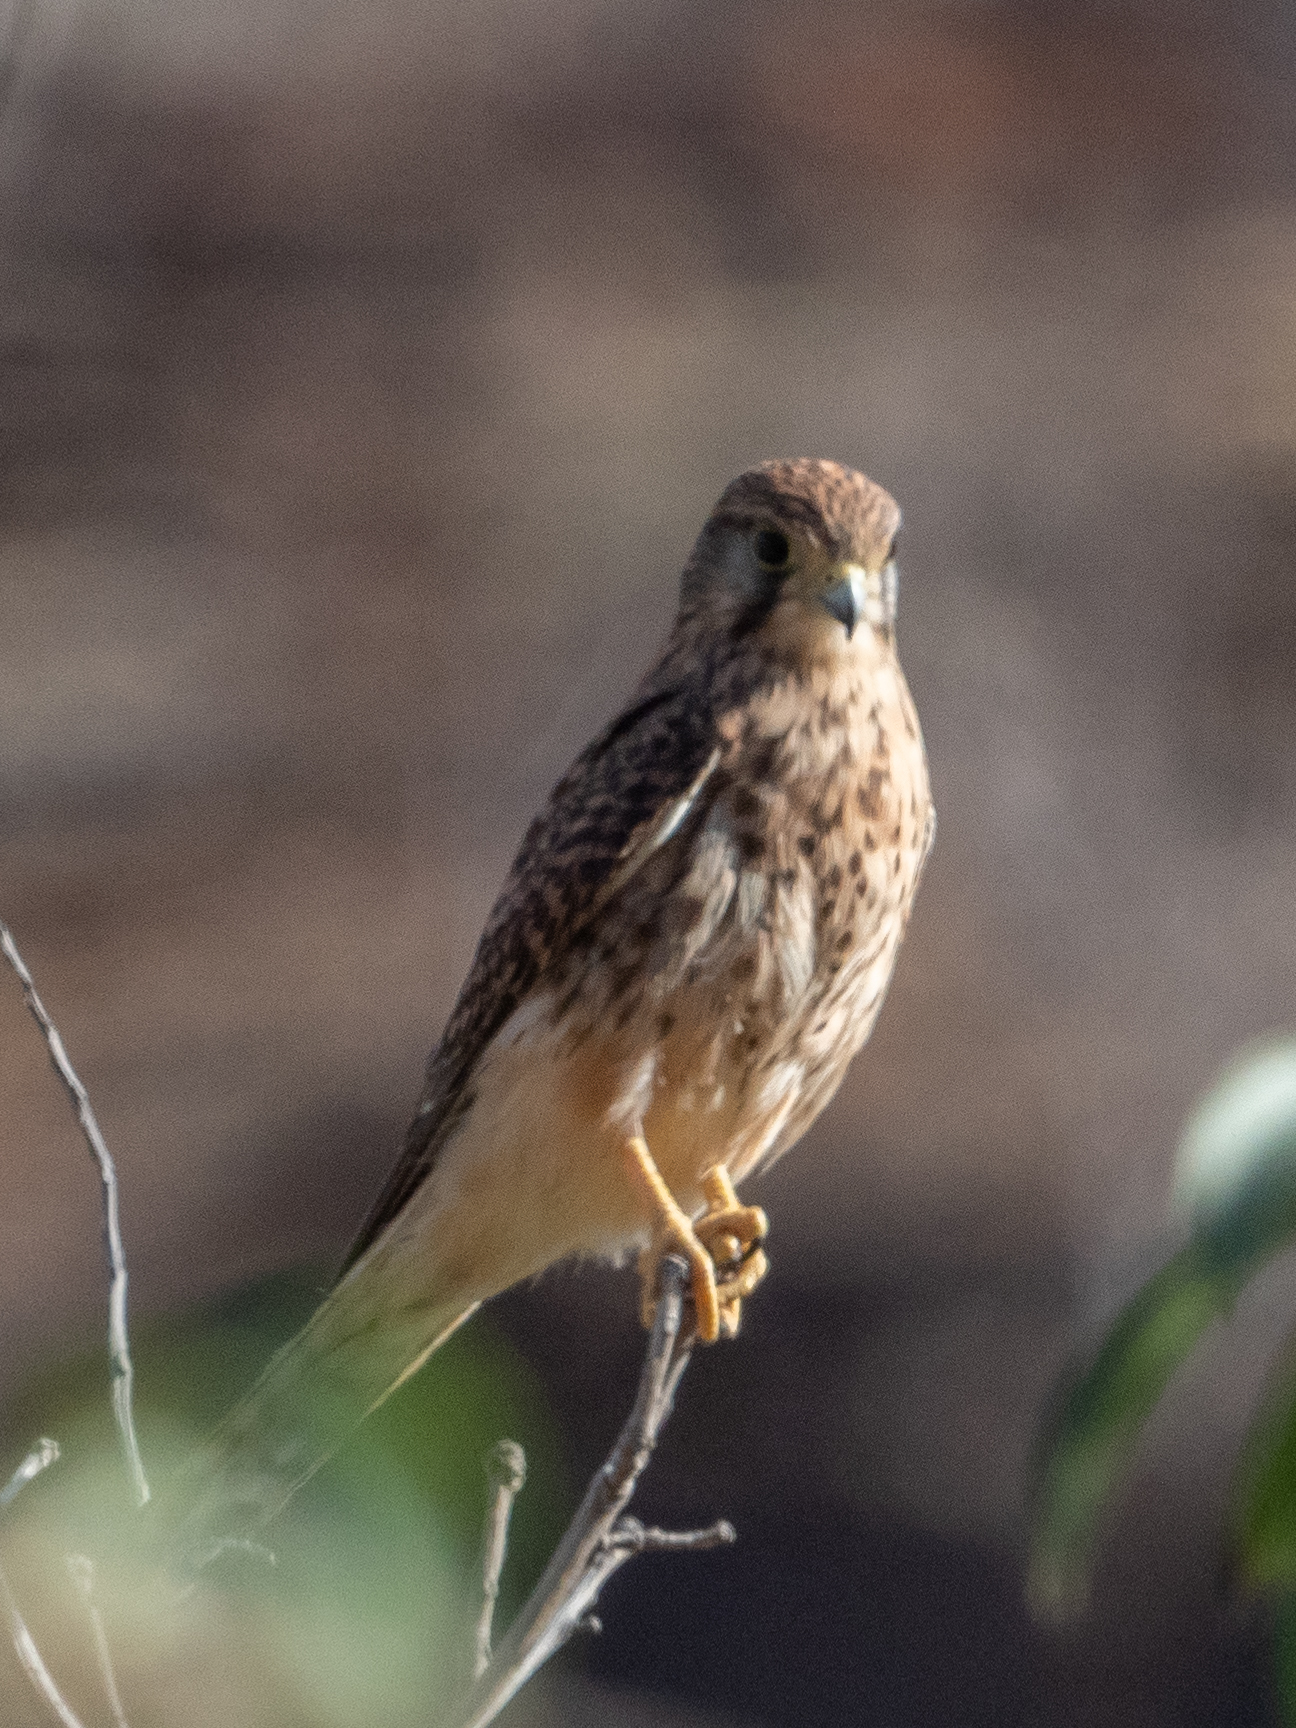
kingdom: Animalia
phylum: Chordata
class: Aves
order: Falconiformes
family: Falconidae
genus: Falco
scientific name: Falco tinnunculus
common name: Common kestrel
